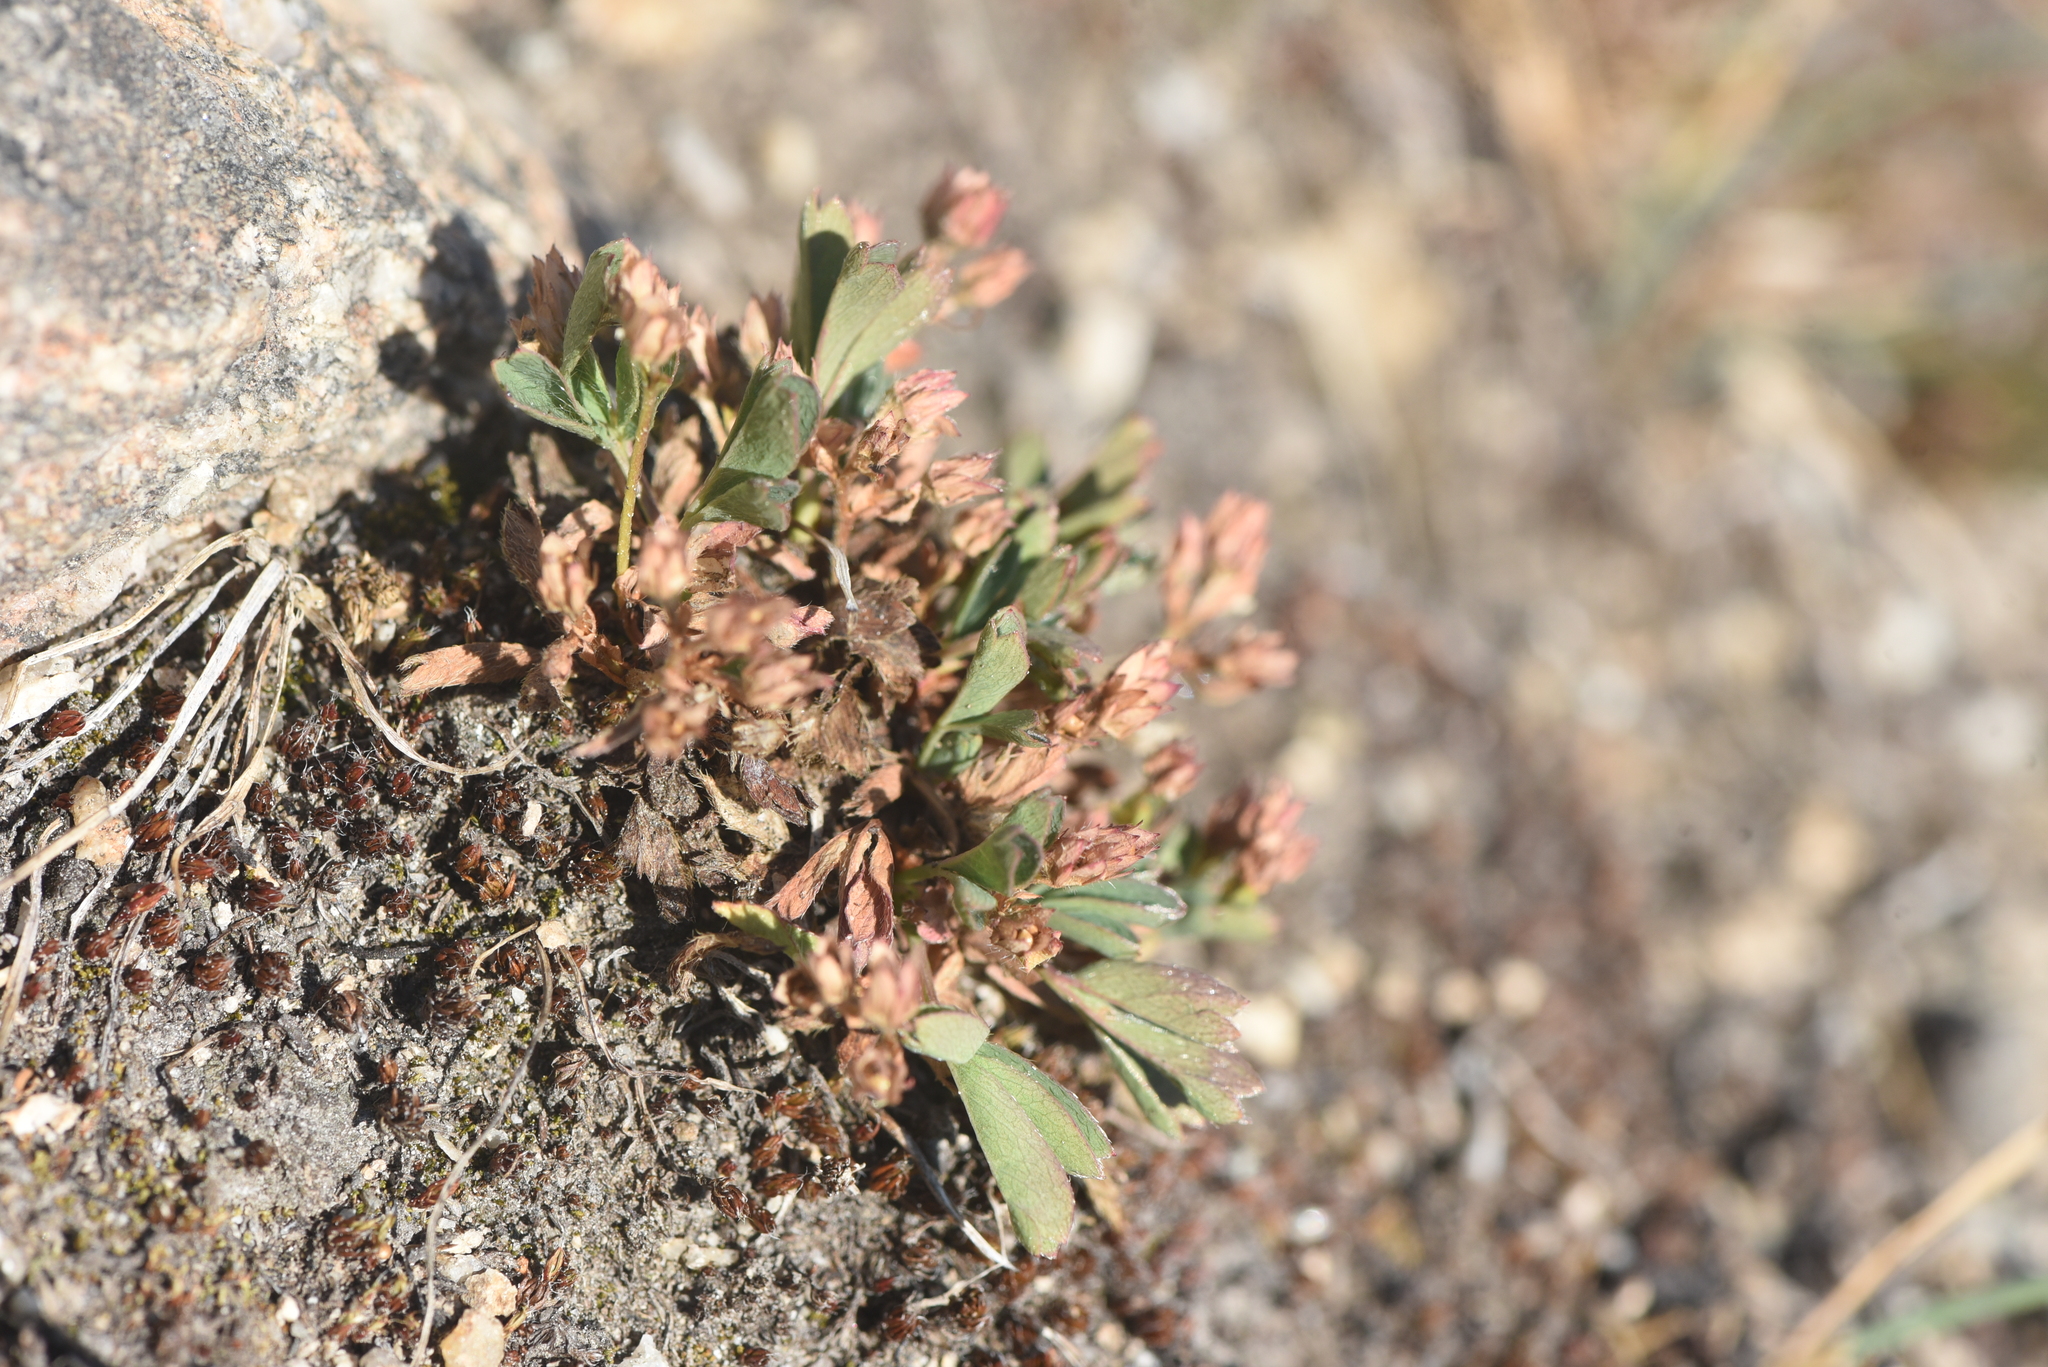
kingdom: Plantae
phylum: Tracheophyta
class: Magnoliopsida
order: Rosales
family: Rosaceae
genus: Sibbaldia
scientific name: Sibbaldia procumbens
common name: Creeping sibbaldia
